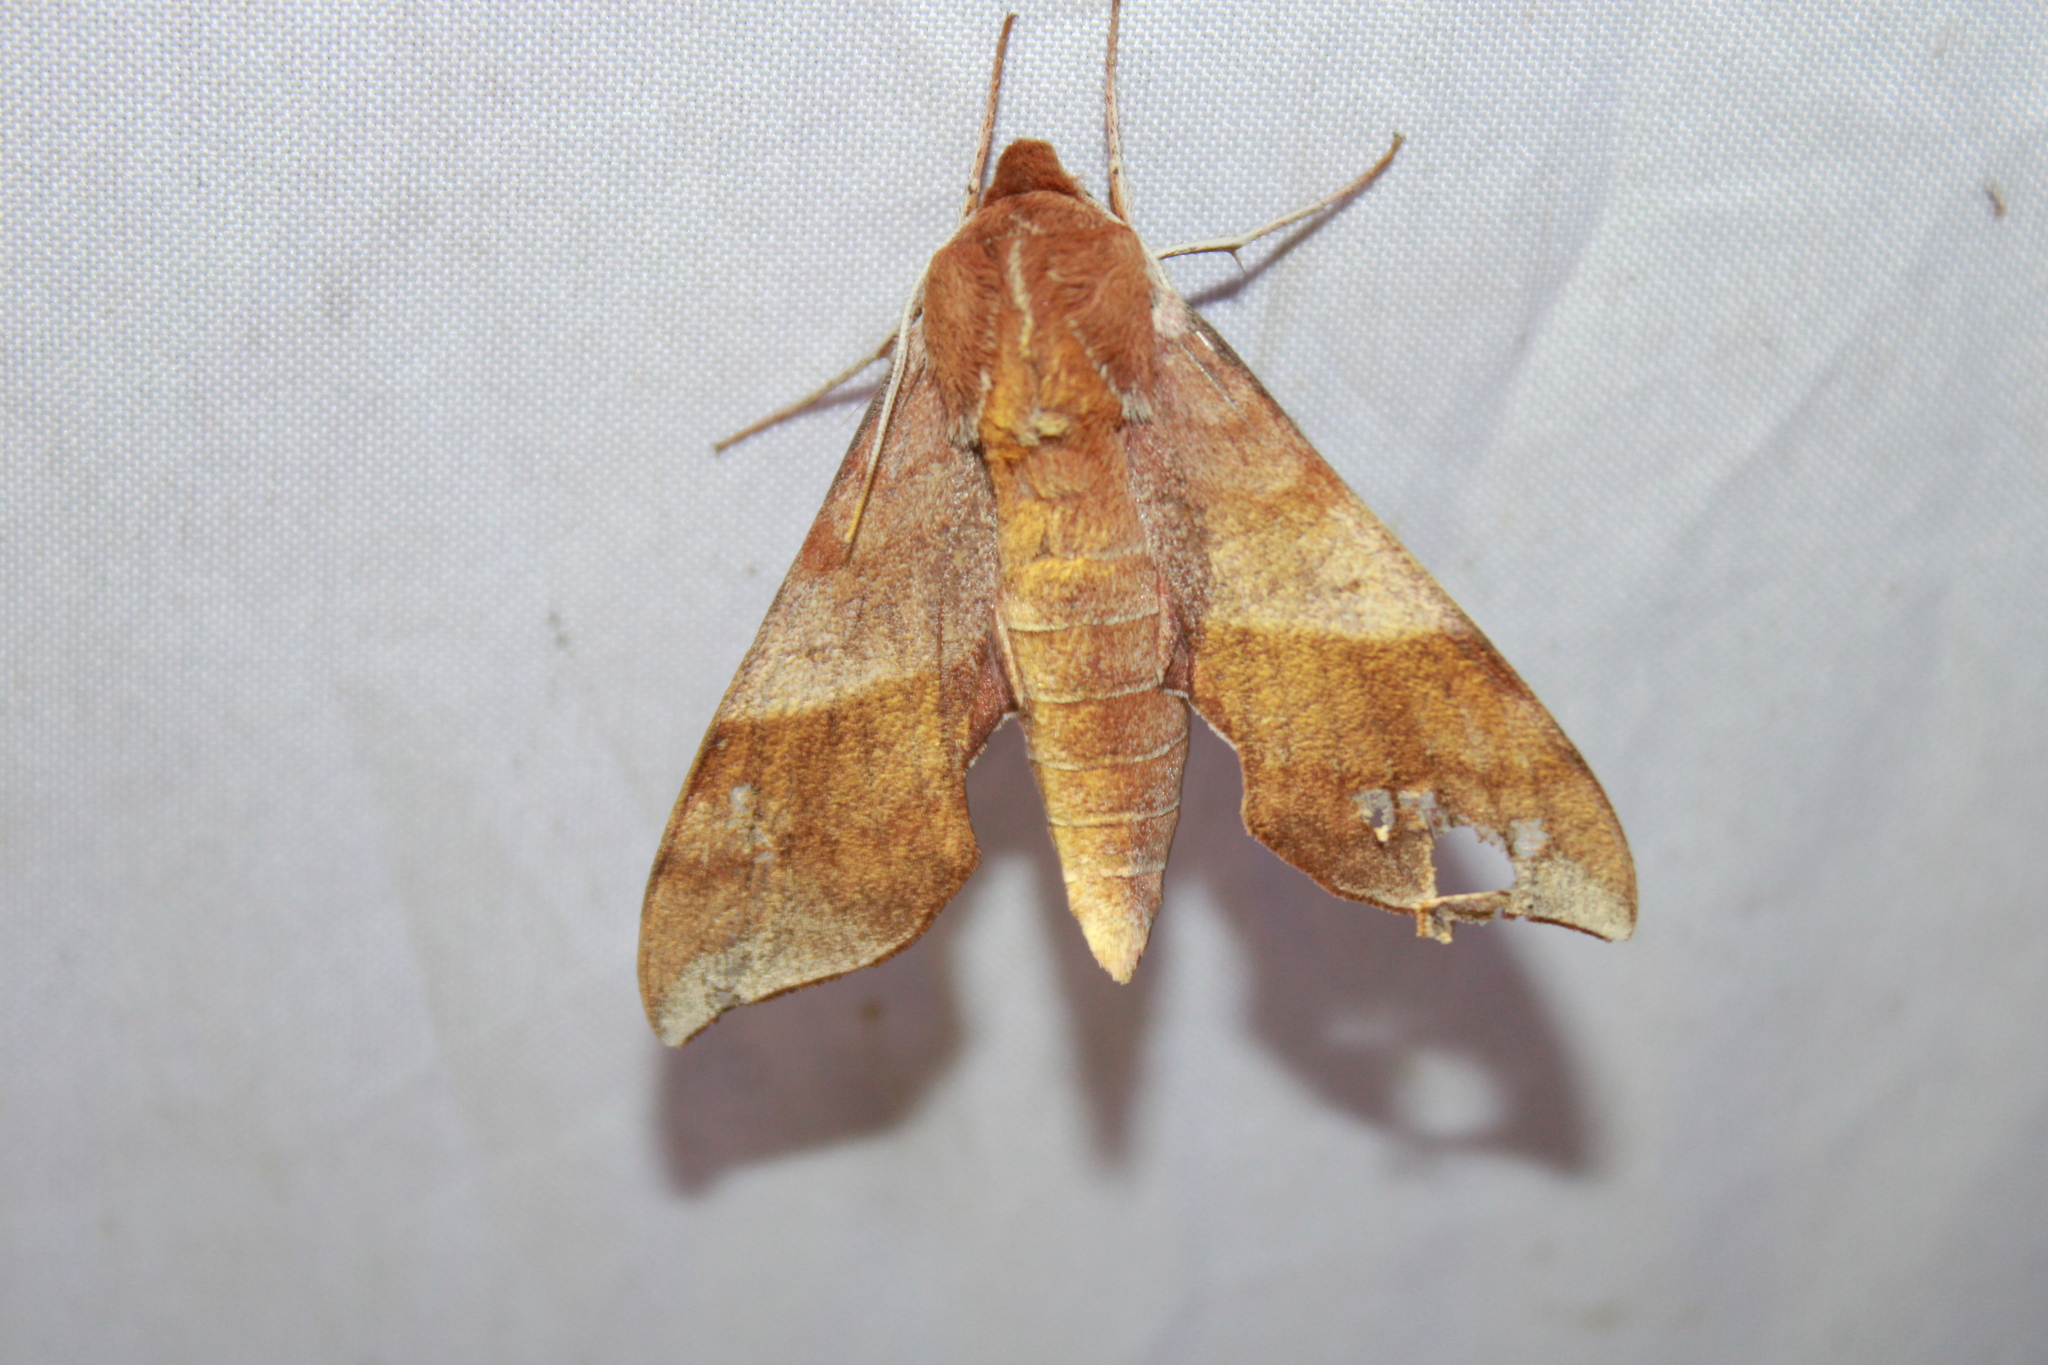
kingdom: Animalia
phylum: Arthropoda
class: Insecta
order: Lepidoptera
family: Sphingidae
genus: Darapsa
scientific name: Darapsa choerilus
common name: Azalea sphinx
